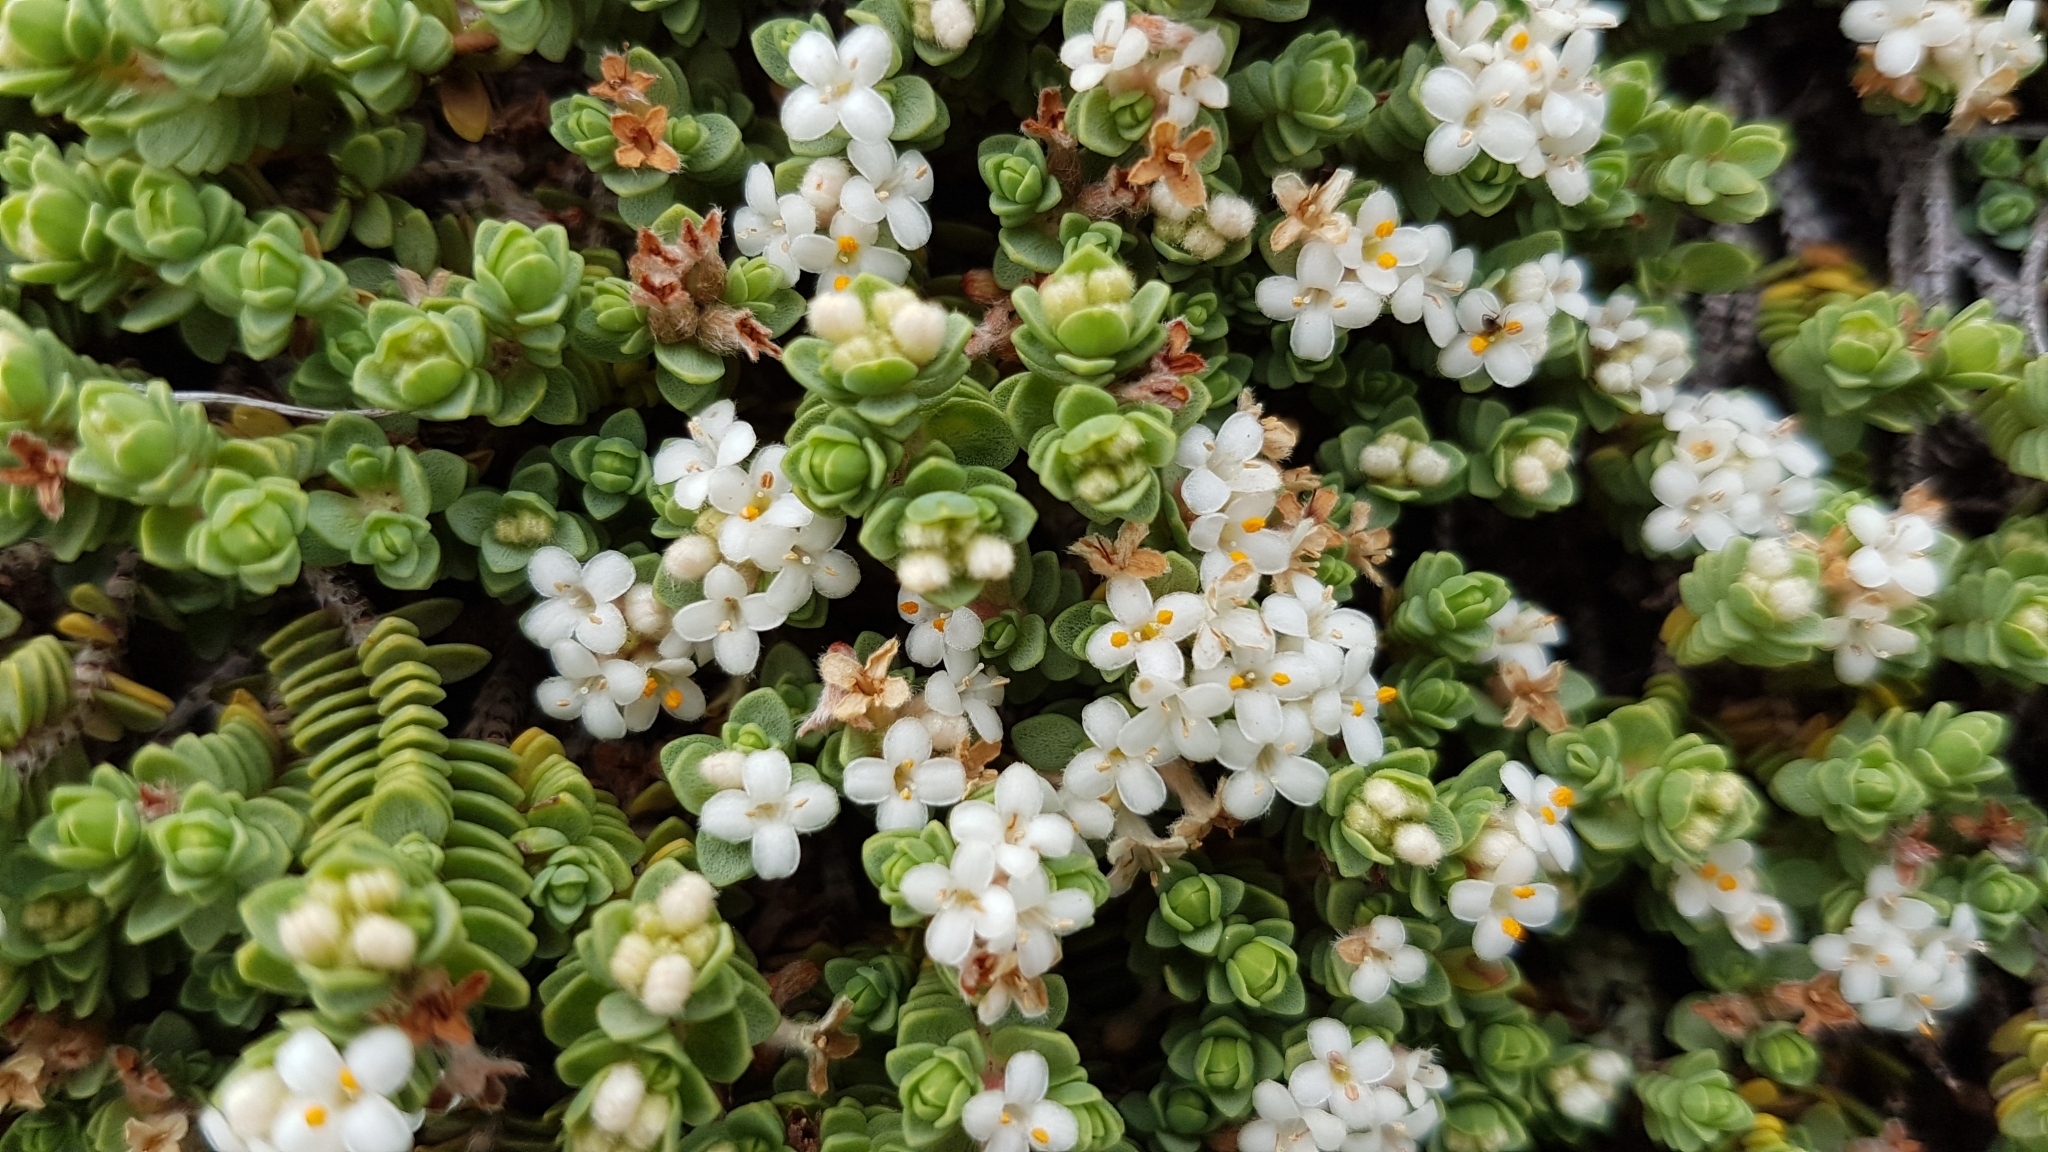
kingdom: Plantae
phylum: Tracheophyta
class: Magnoliopsida
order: Malvales
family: Thymelaeaceae
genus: Pimelea
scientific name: Pimelea carnosa
